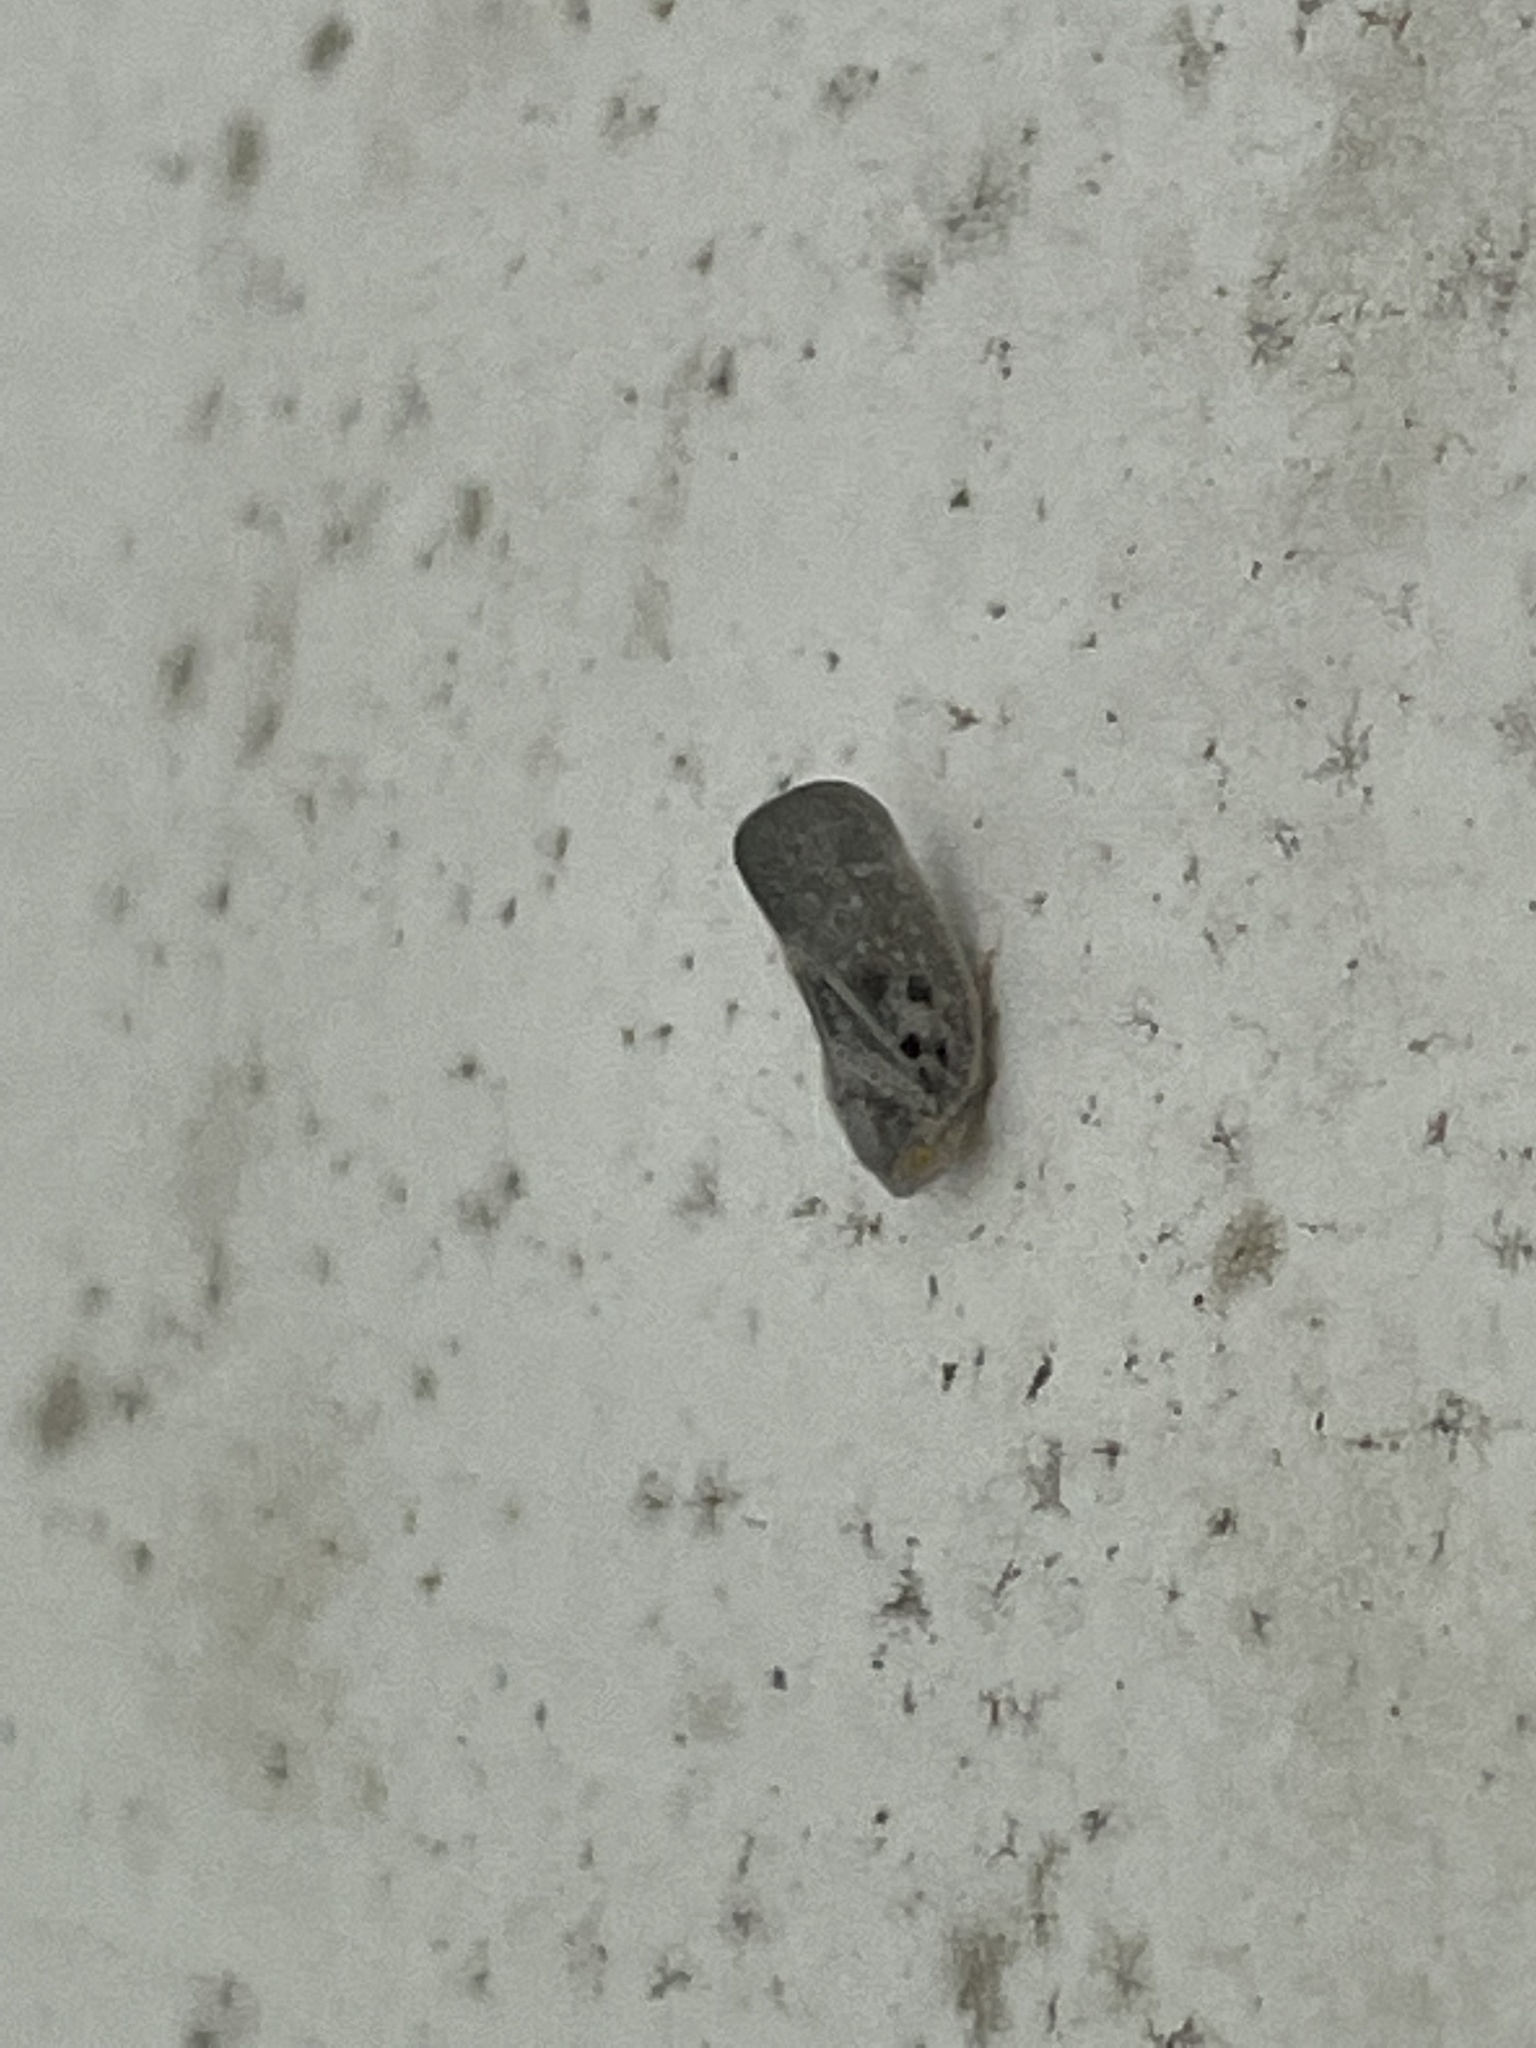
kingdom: Animalia
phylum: Arthropoda
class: Insecta
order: Hemiptera
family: Flatidae
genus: Metcalfa
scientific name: Metcalfa pruinosa
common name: Citrus flatid planthopper
